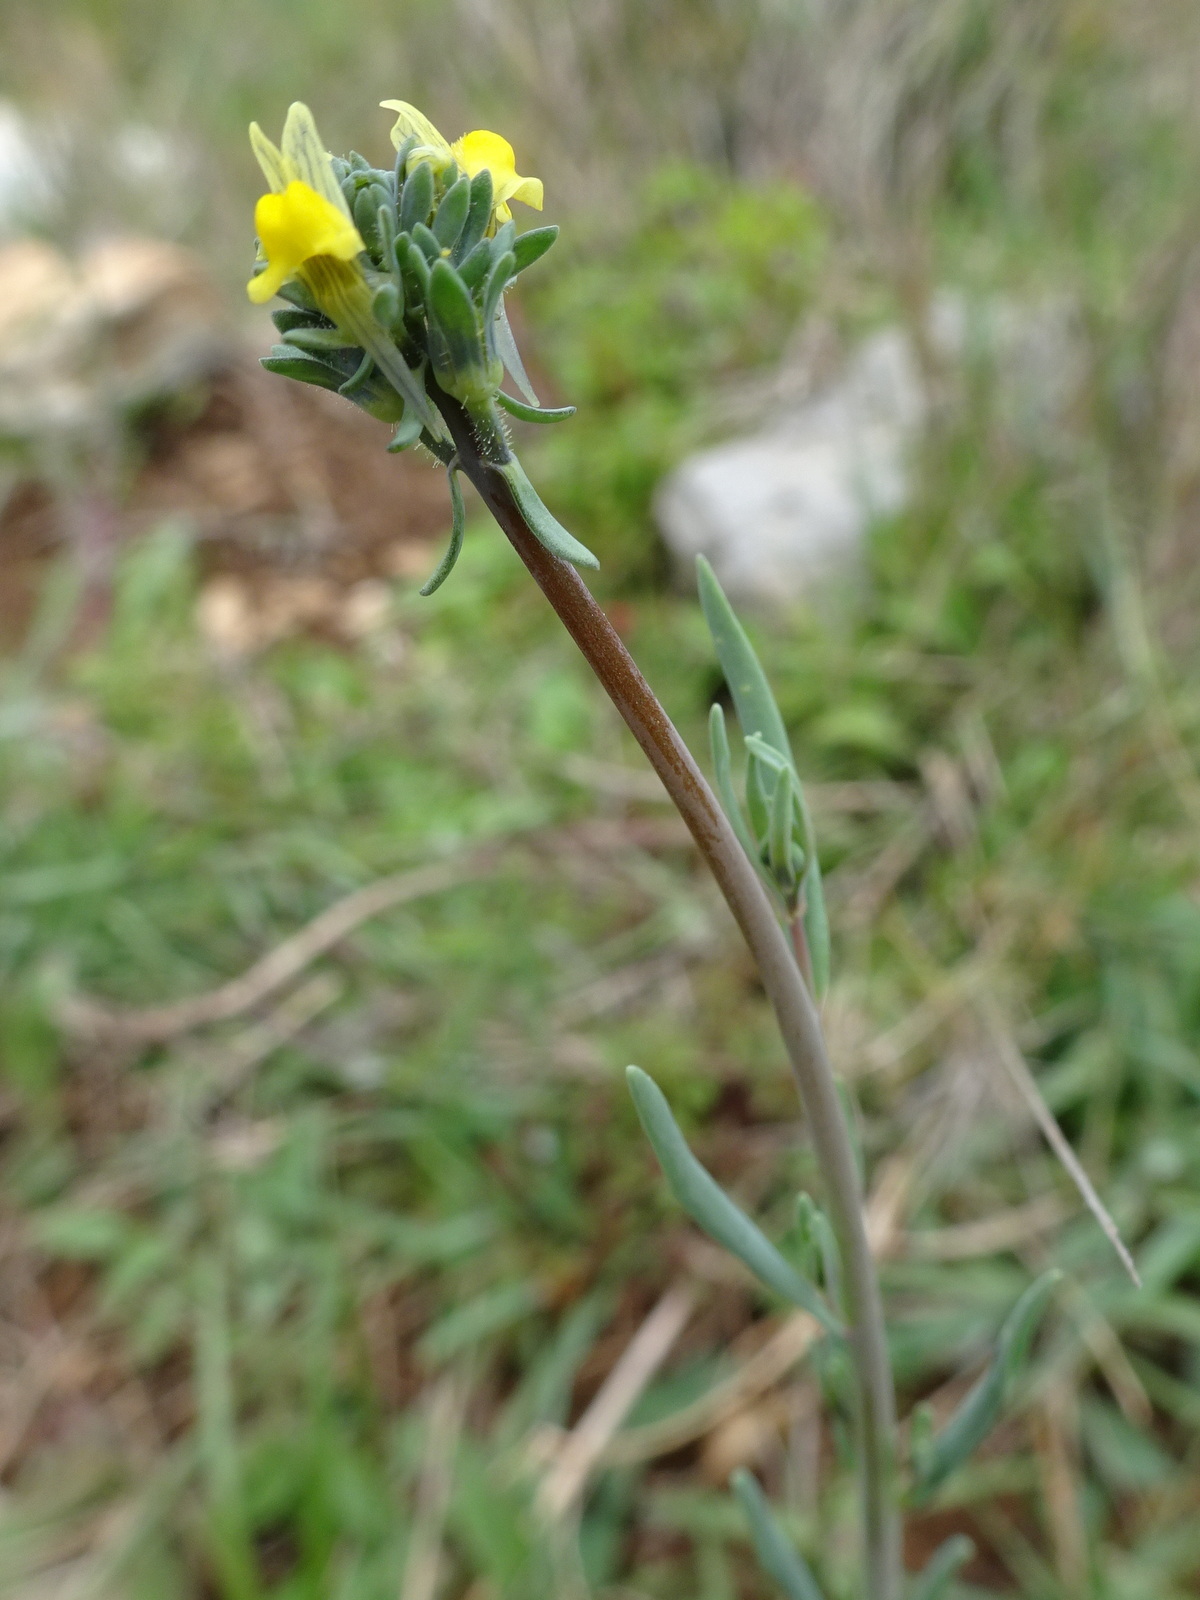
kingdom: Plantae
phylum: Tracheophyta
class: Magnoliopsida
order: Lamiales
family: Plantaginaceae
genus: Linaria
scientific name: Linaria simplex
